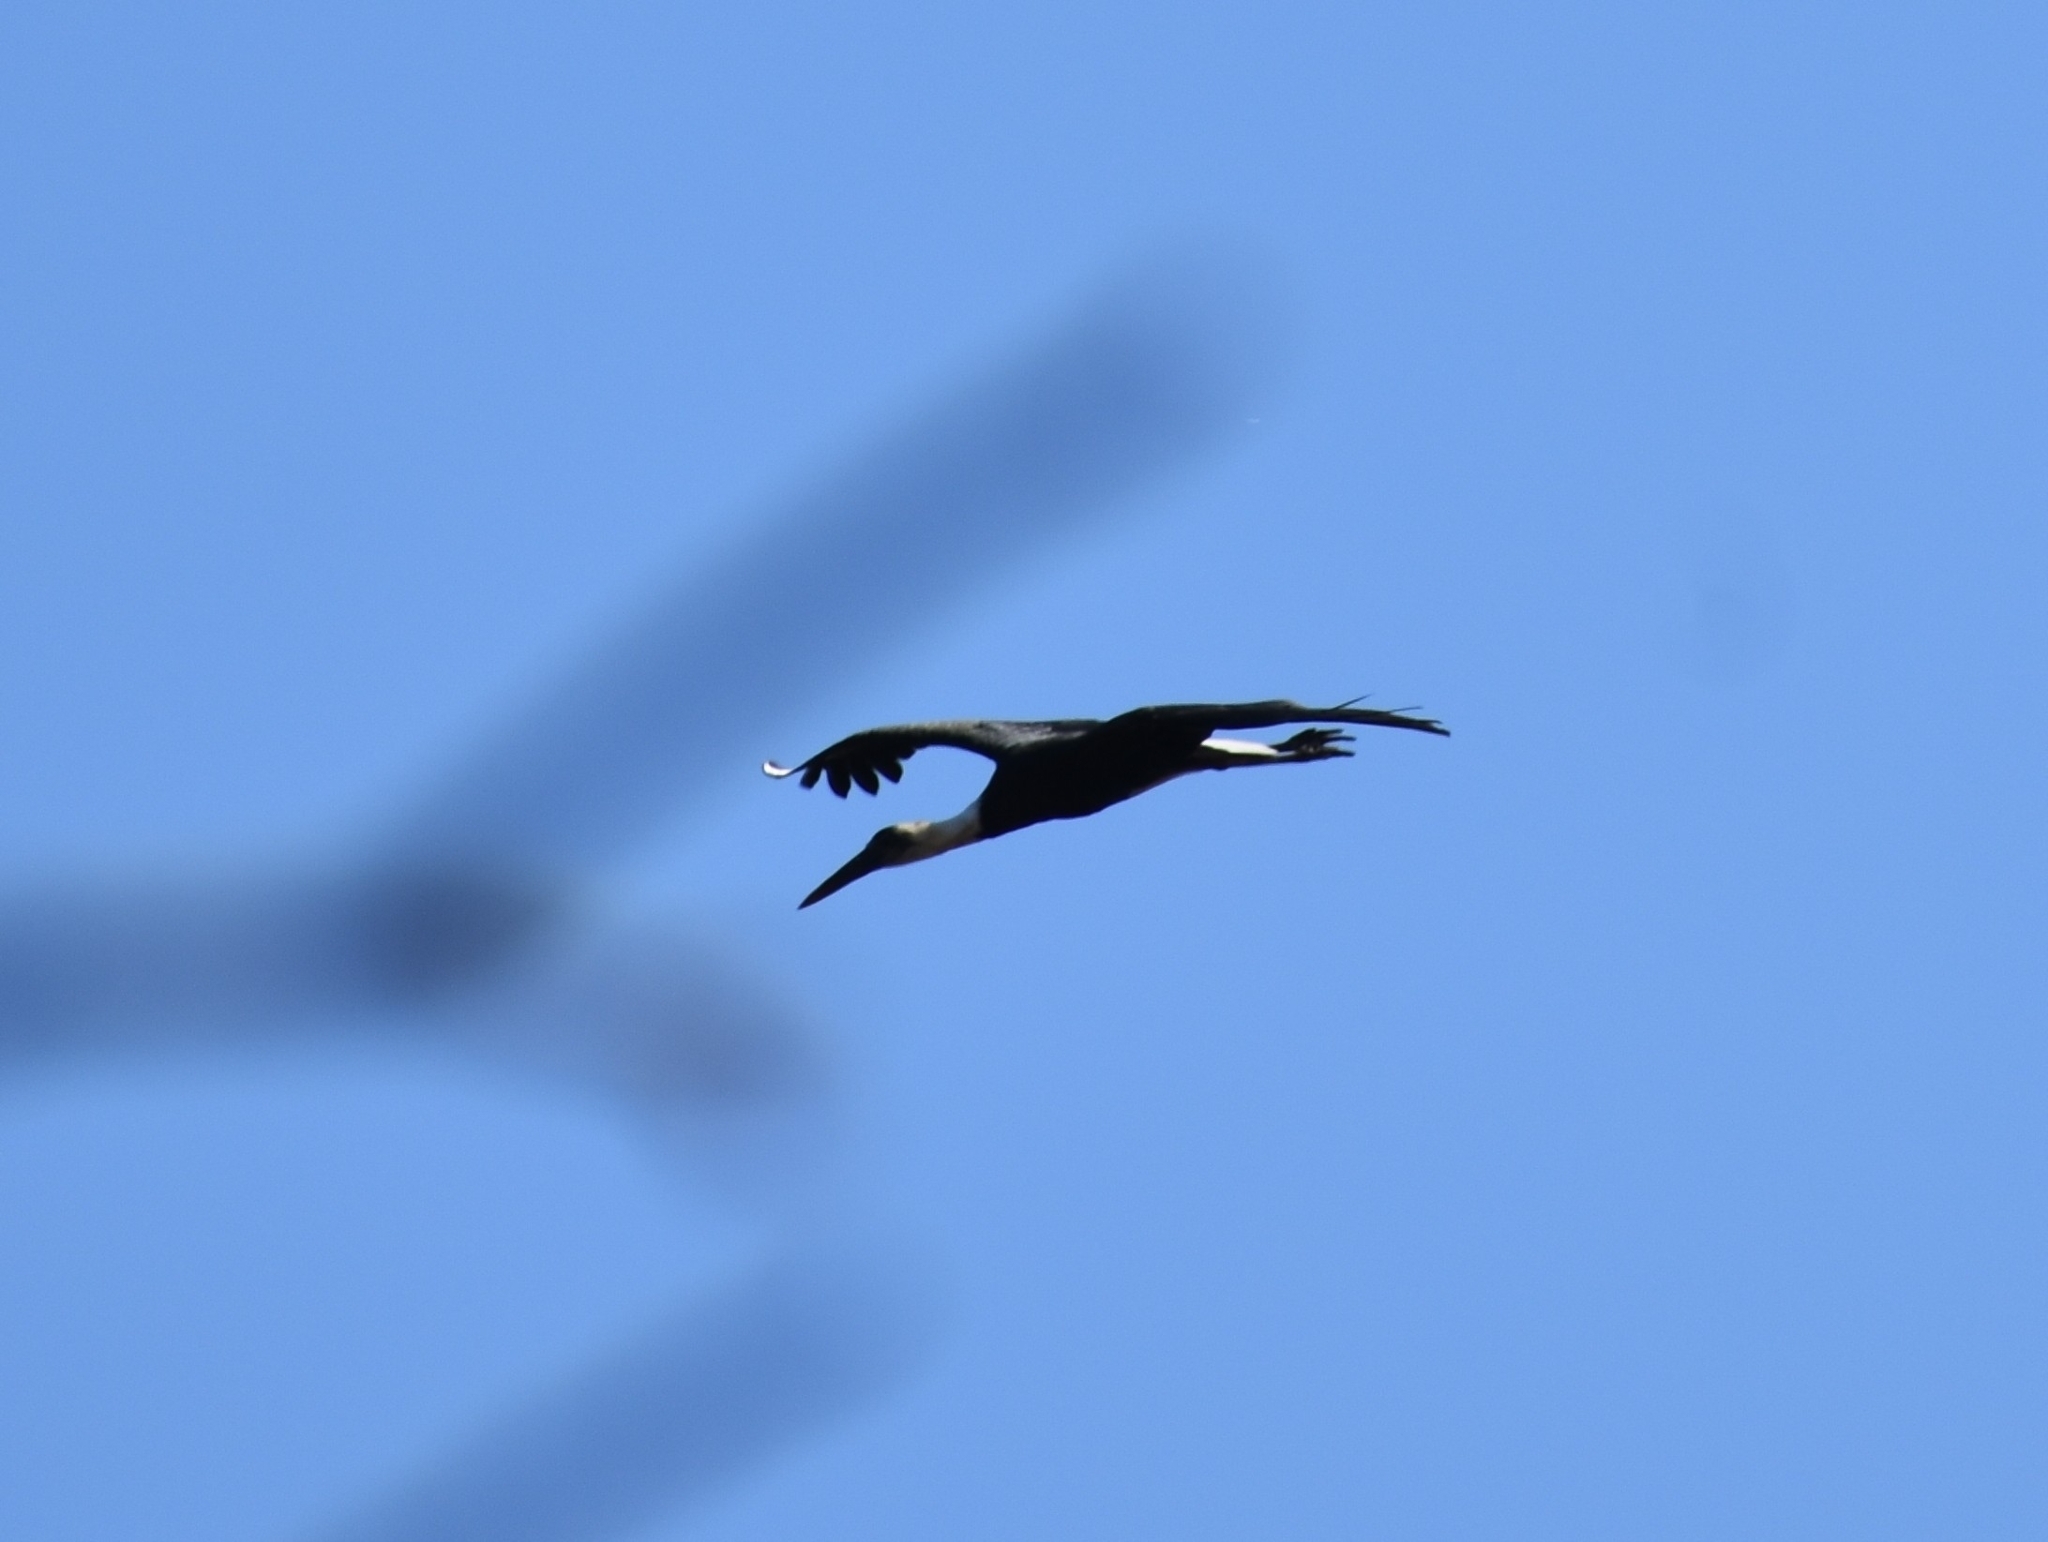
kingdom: Animalia
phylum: Chordata
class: Aves
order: Ciconiiformes
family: Ciconiidae
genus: Ciconia
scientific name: Ciconia microscelis
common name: African woollyneck
